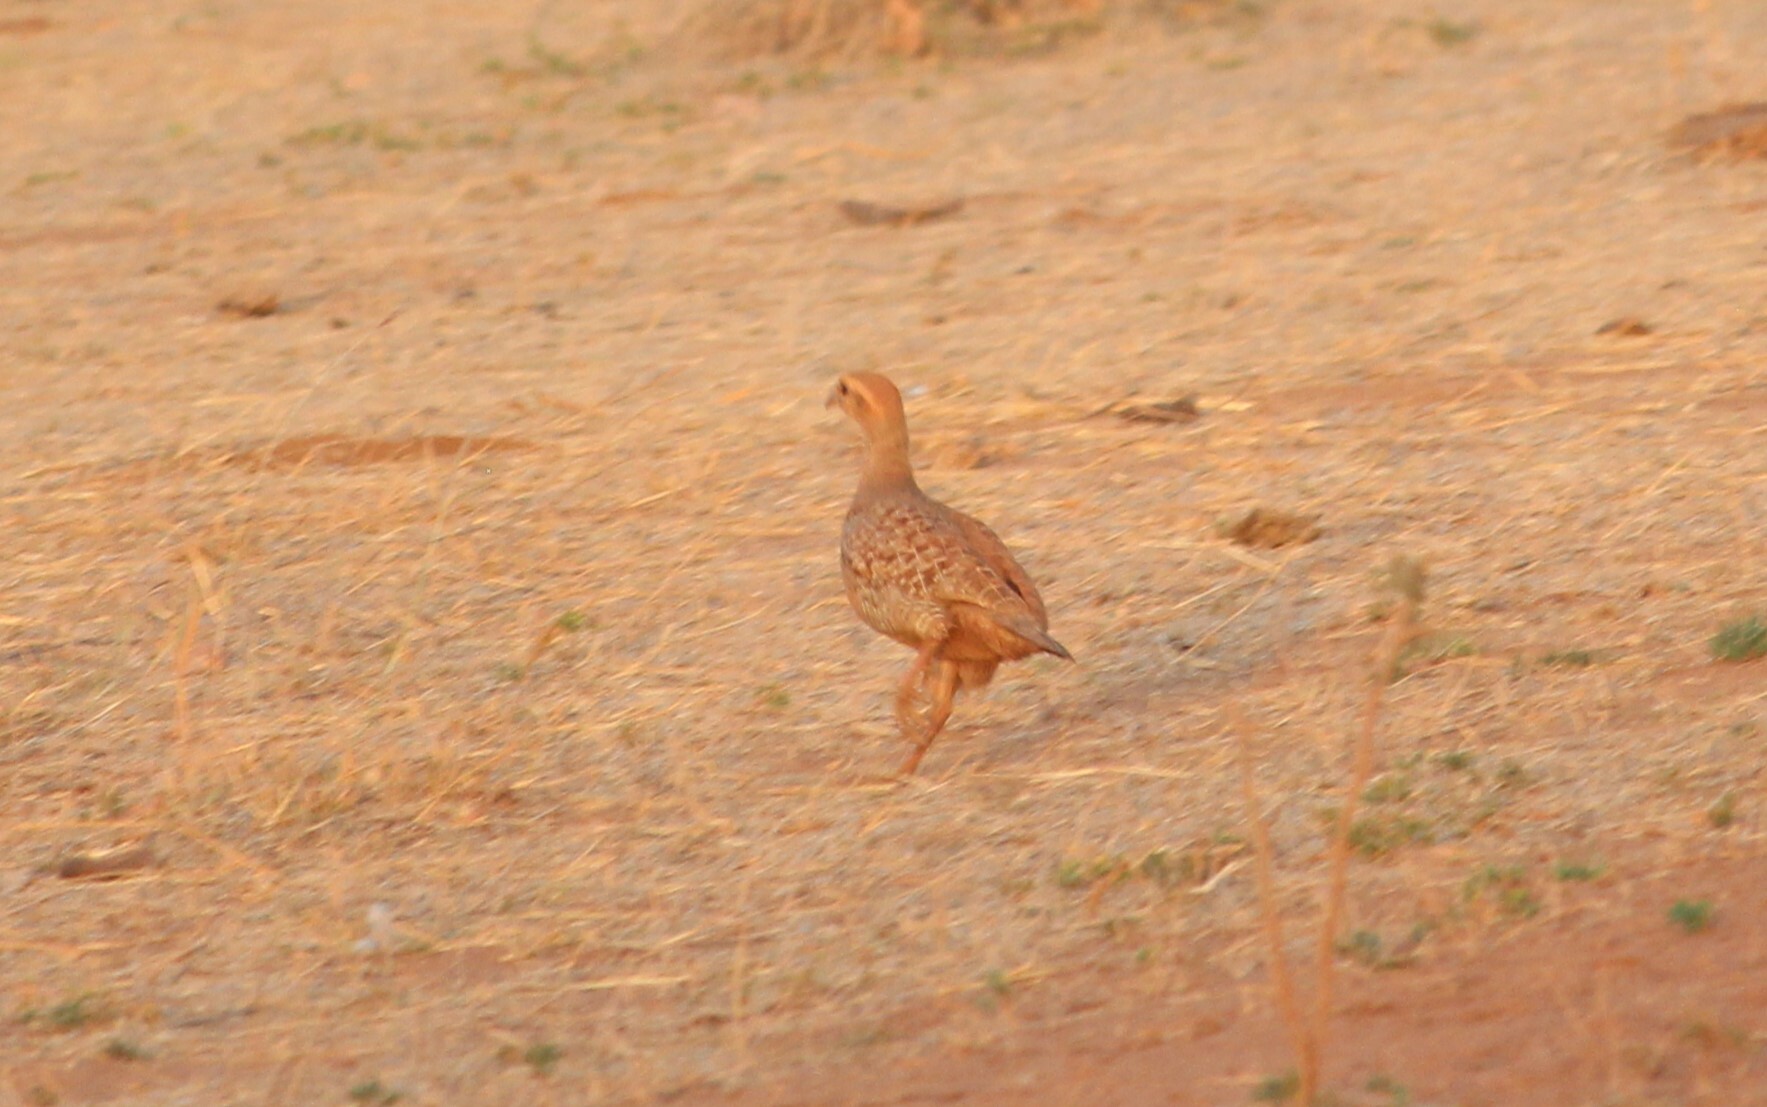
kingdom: Animalia
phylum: Chordata
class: Aves
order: Galliformes
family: Phasianidae
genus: Ortygornis
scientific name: Ortygornis pondicerianus
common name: Grey francolin
